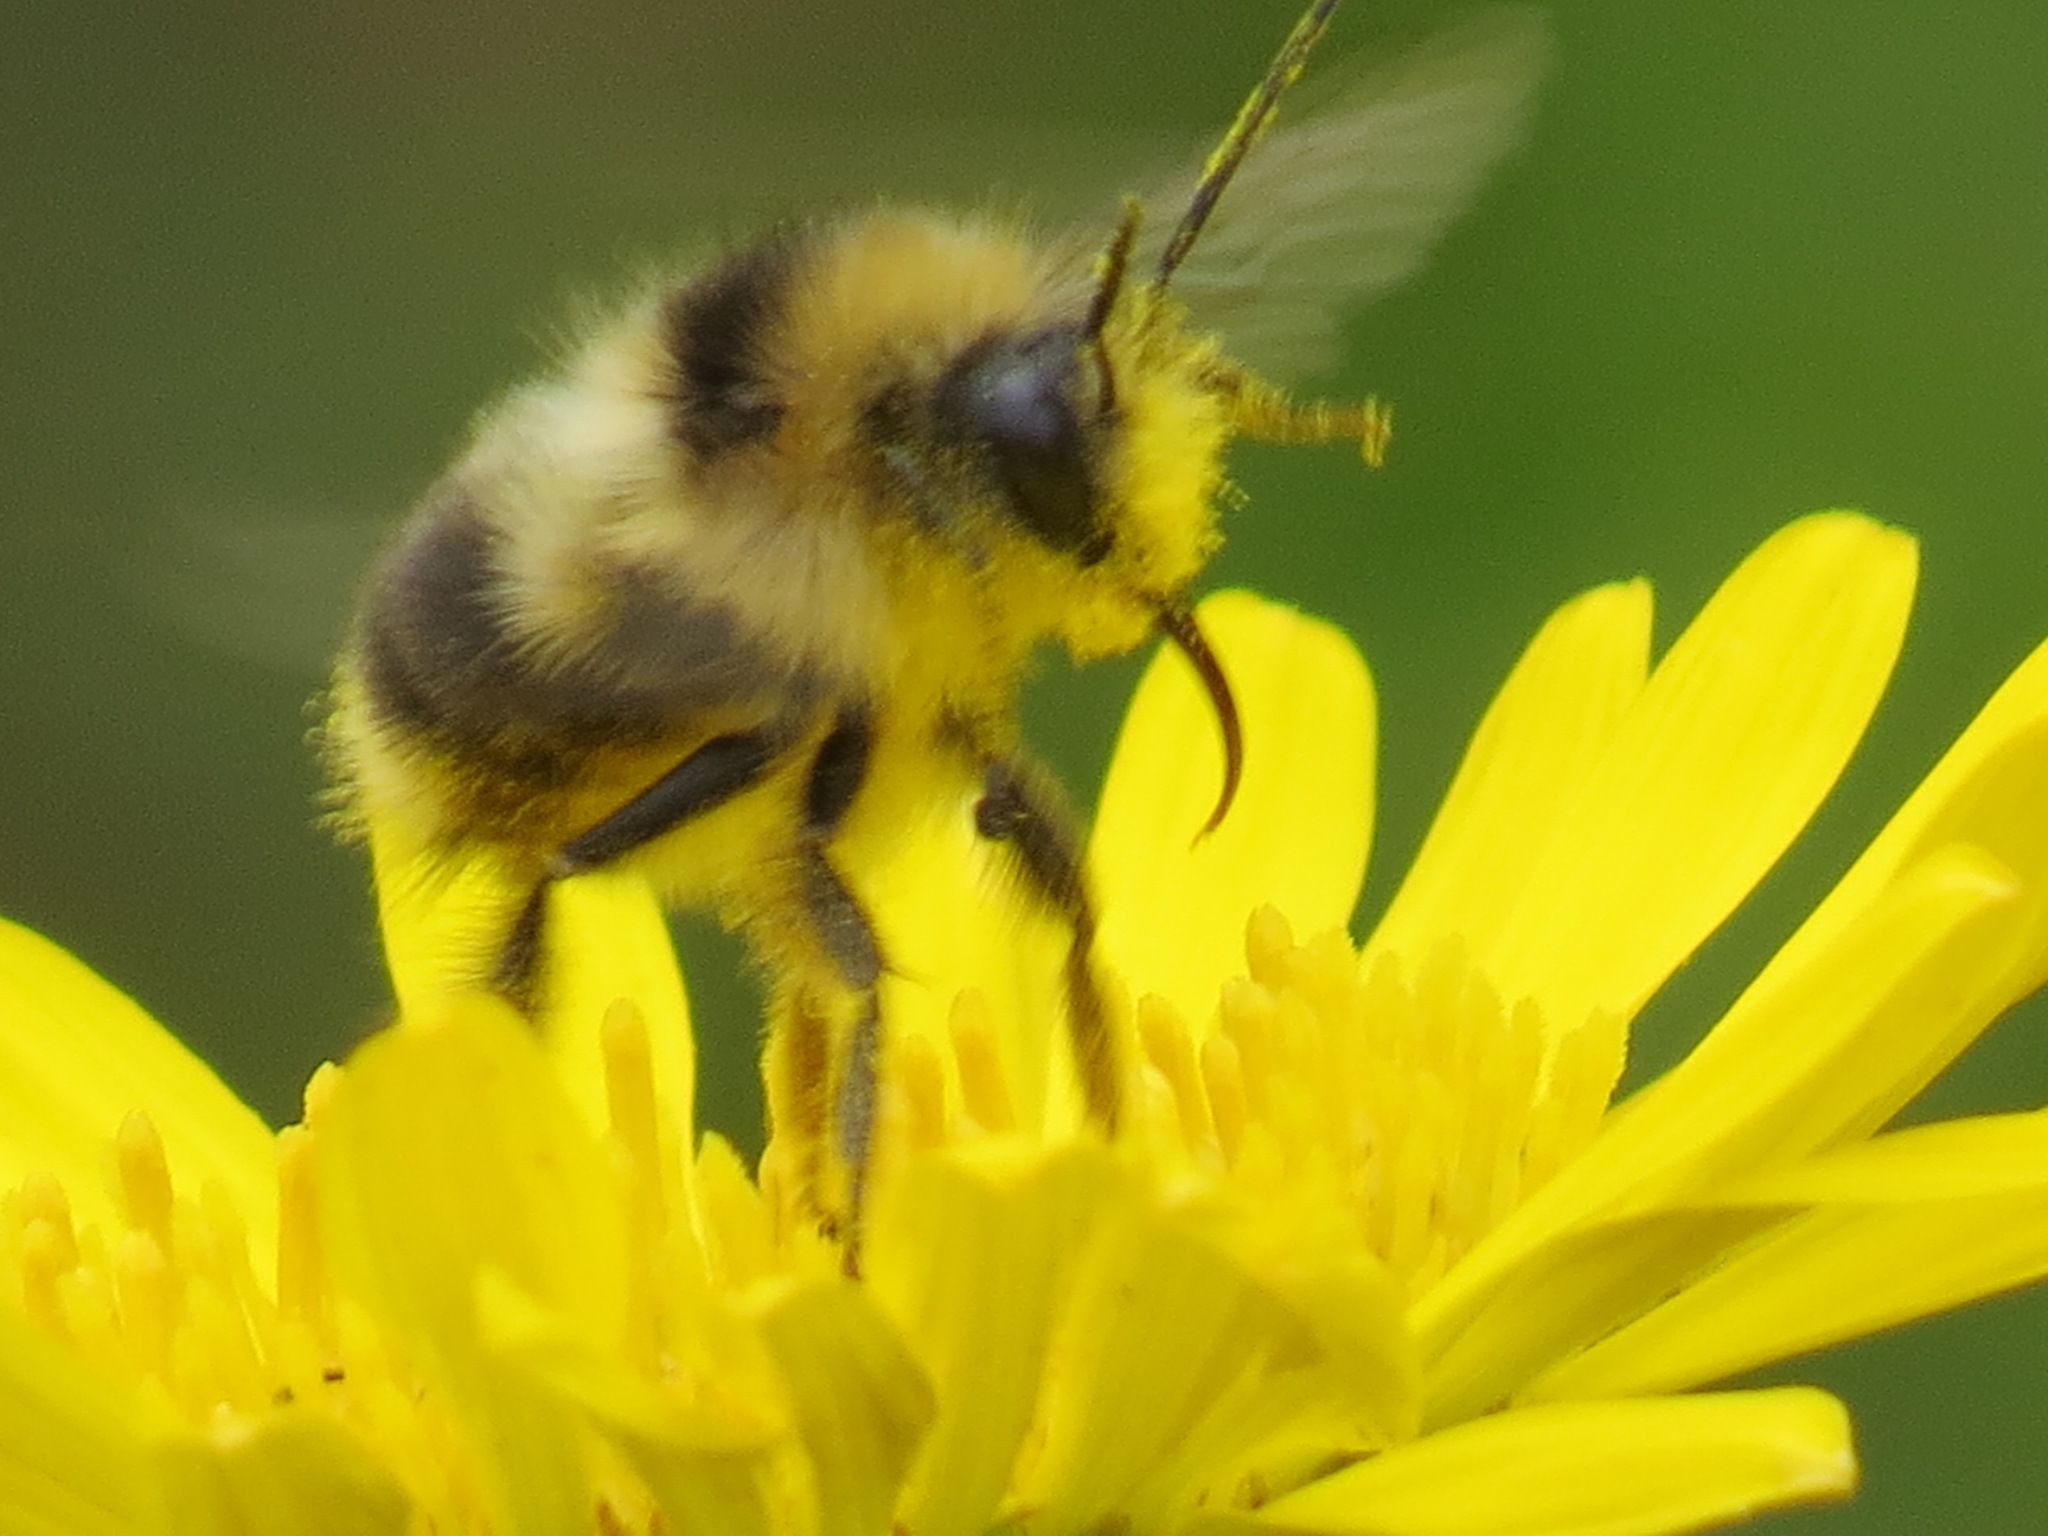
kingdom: Animalia
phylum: Arthropoda
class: Insecta
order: Hymenoptera
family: Apidae
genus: Bombus
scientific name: Bombus melanopygus
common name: Black tail bumble bee
